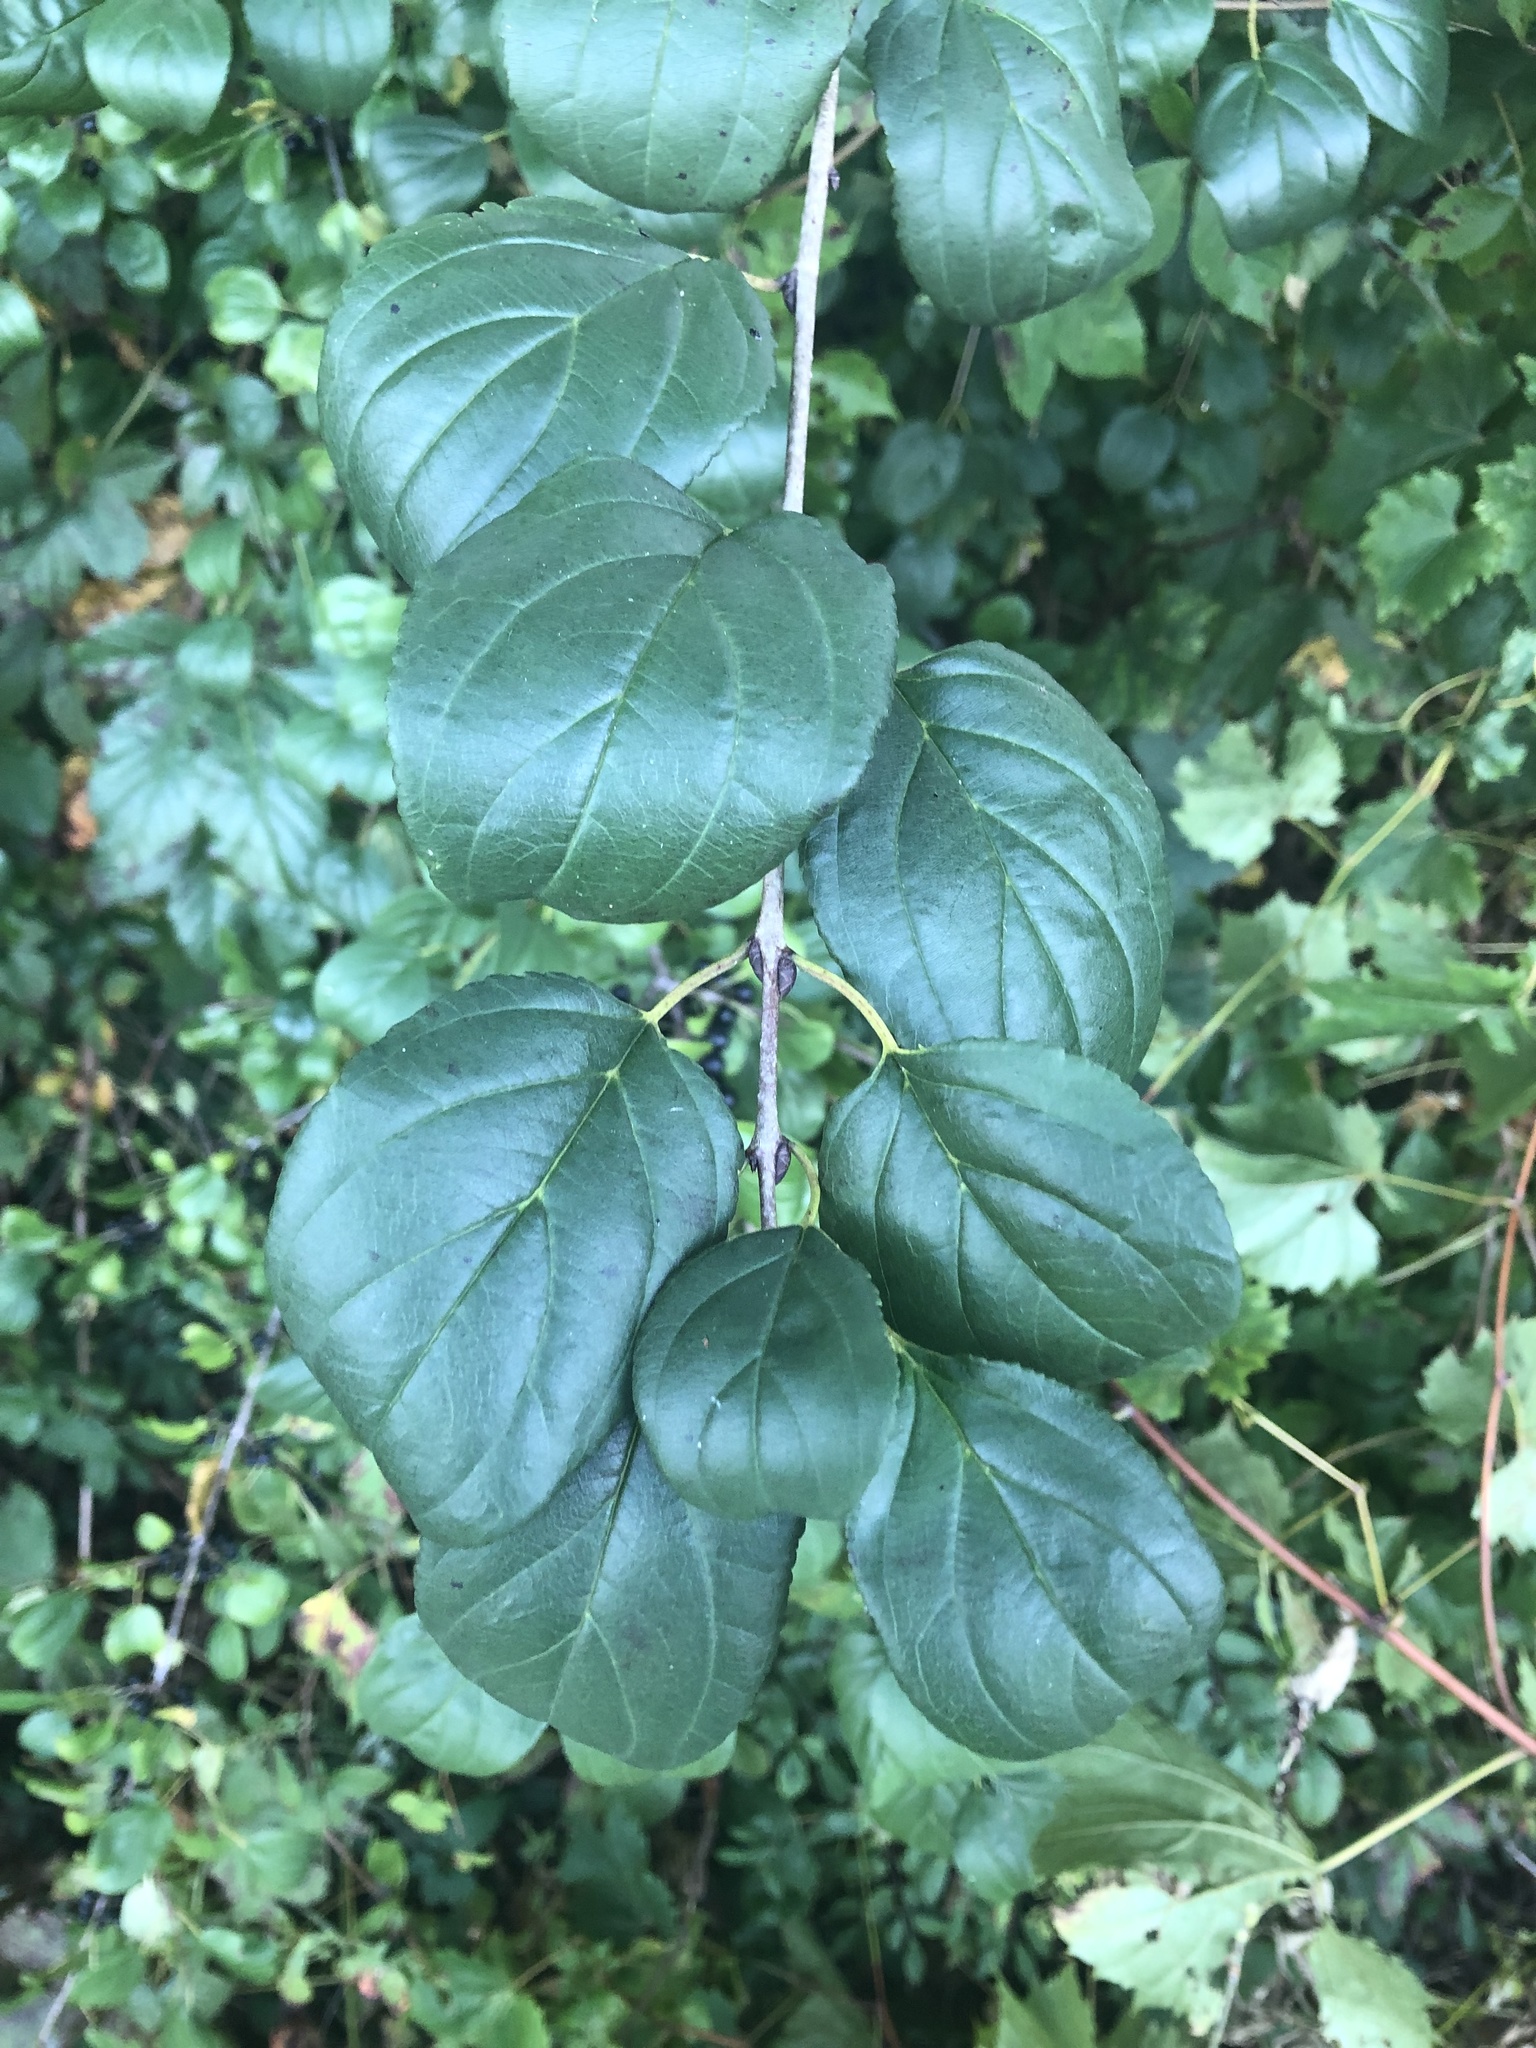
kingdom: Plantae
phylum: Tracheophyta
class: Magnoliopsida
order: Rosales
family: Rhamnaceae
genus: Rhamnus
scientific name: Rhamnus cathartica
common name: Common buckthorn
